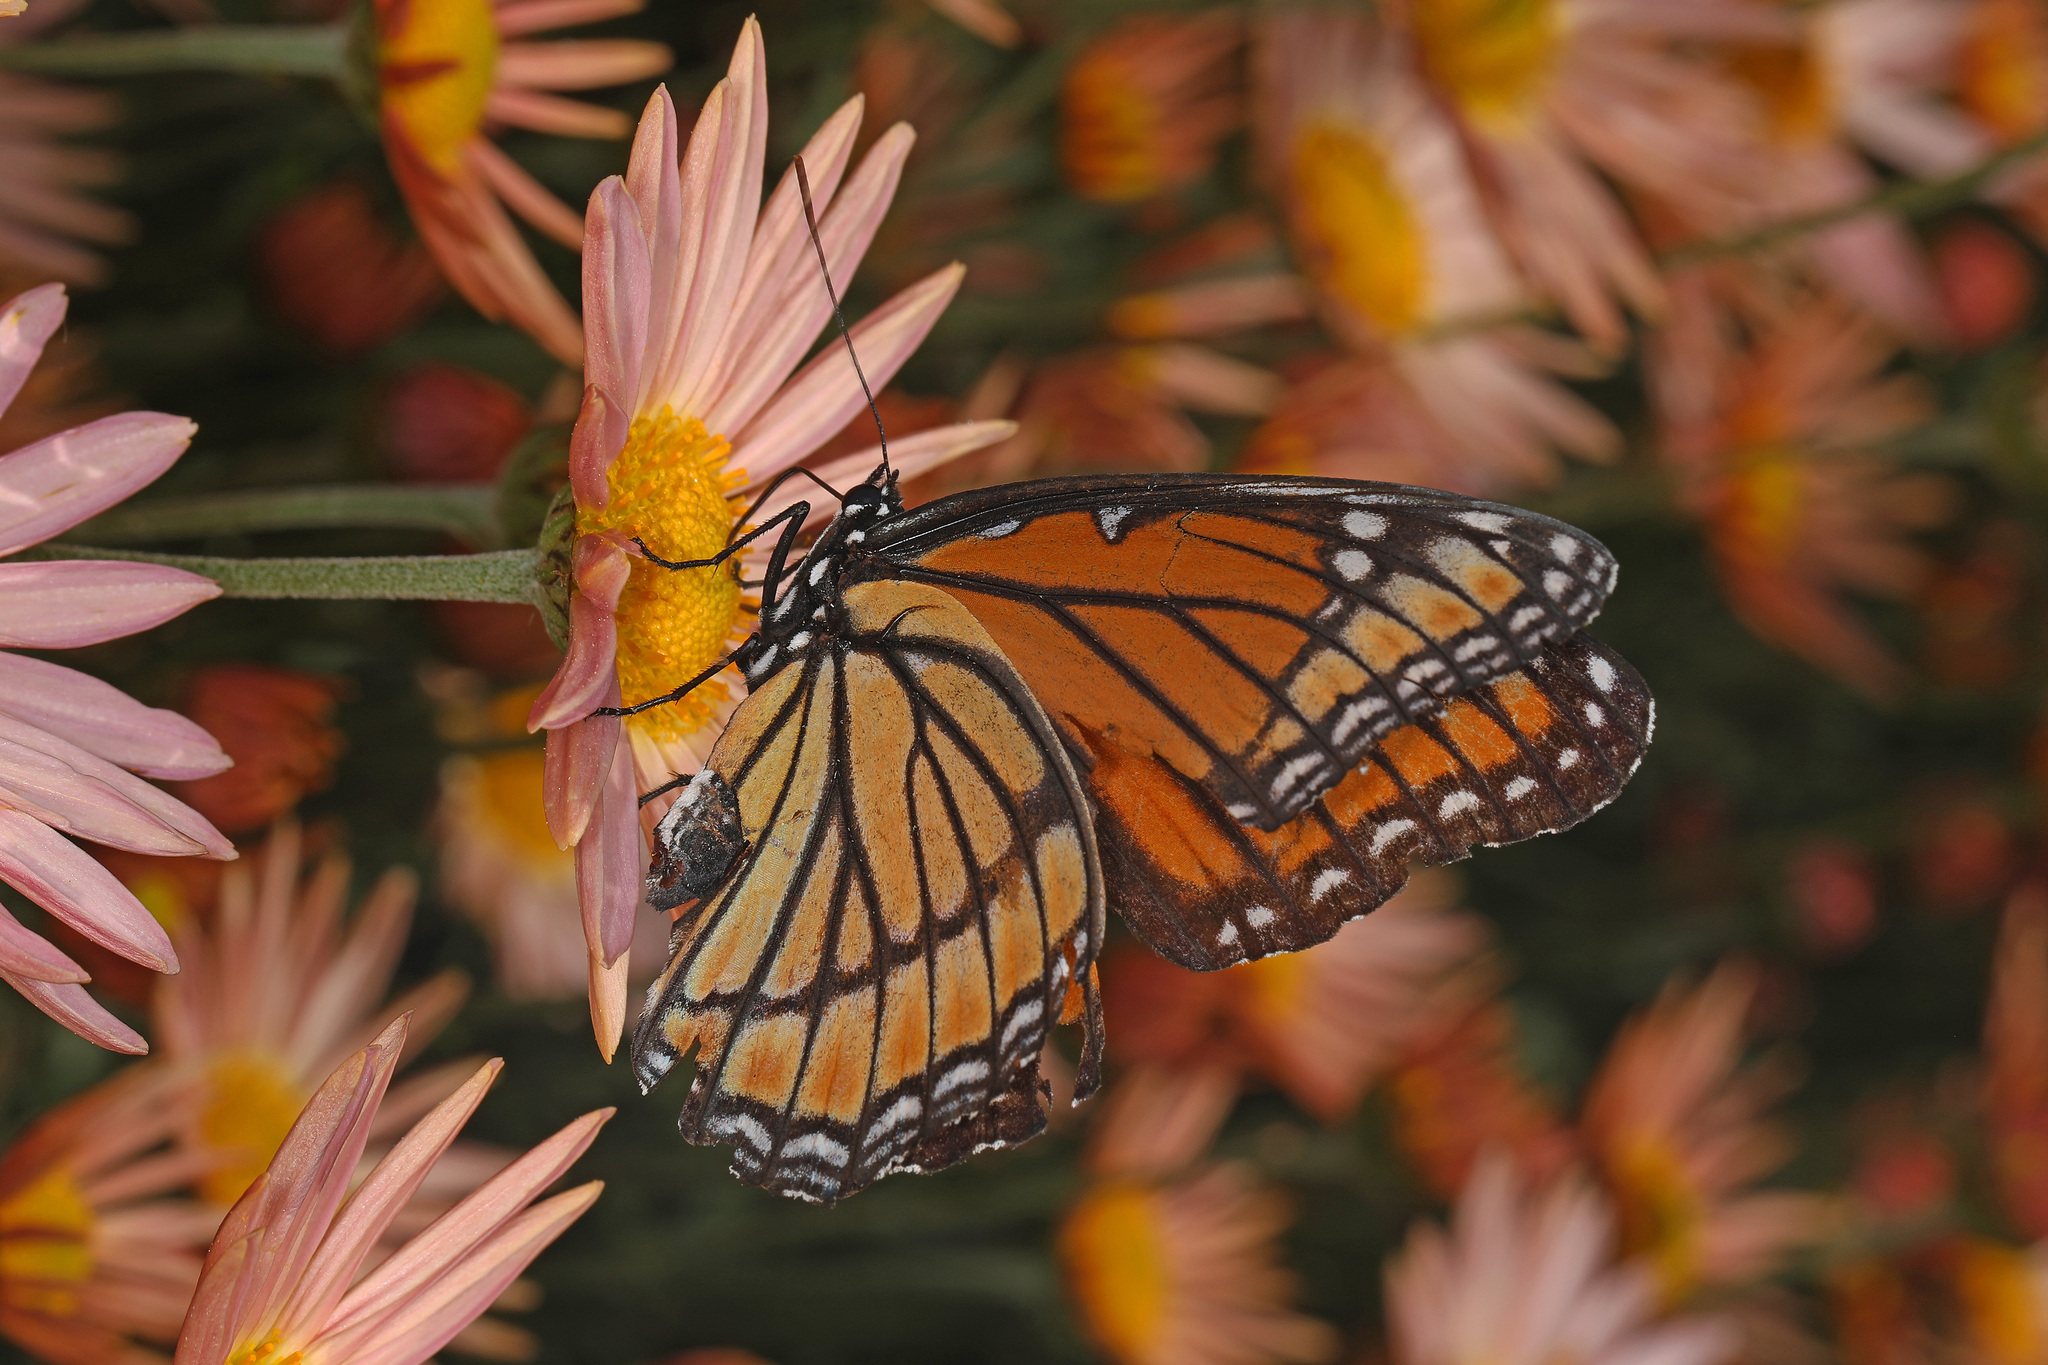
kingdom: Animalia
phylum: Arthropoda
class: Insecta
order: Lepidoptera
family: Nymphalidae
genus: Limenitis
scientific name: Limenitis archippus
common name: Viceroy
